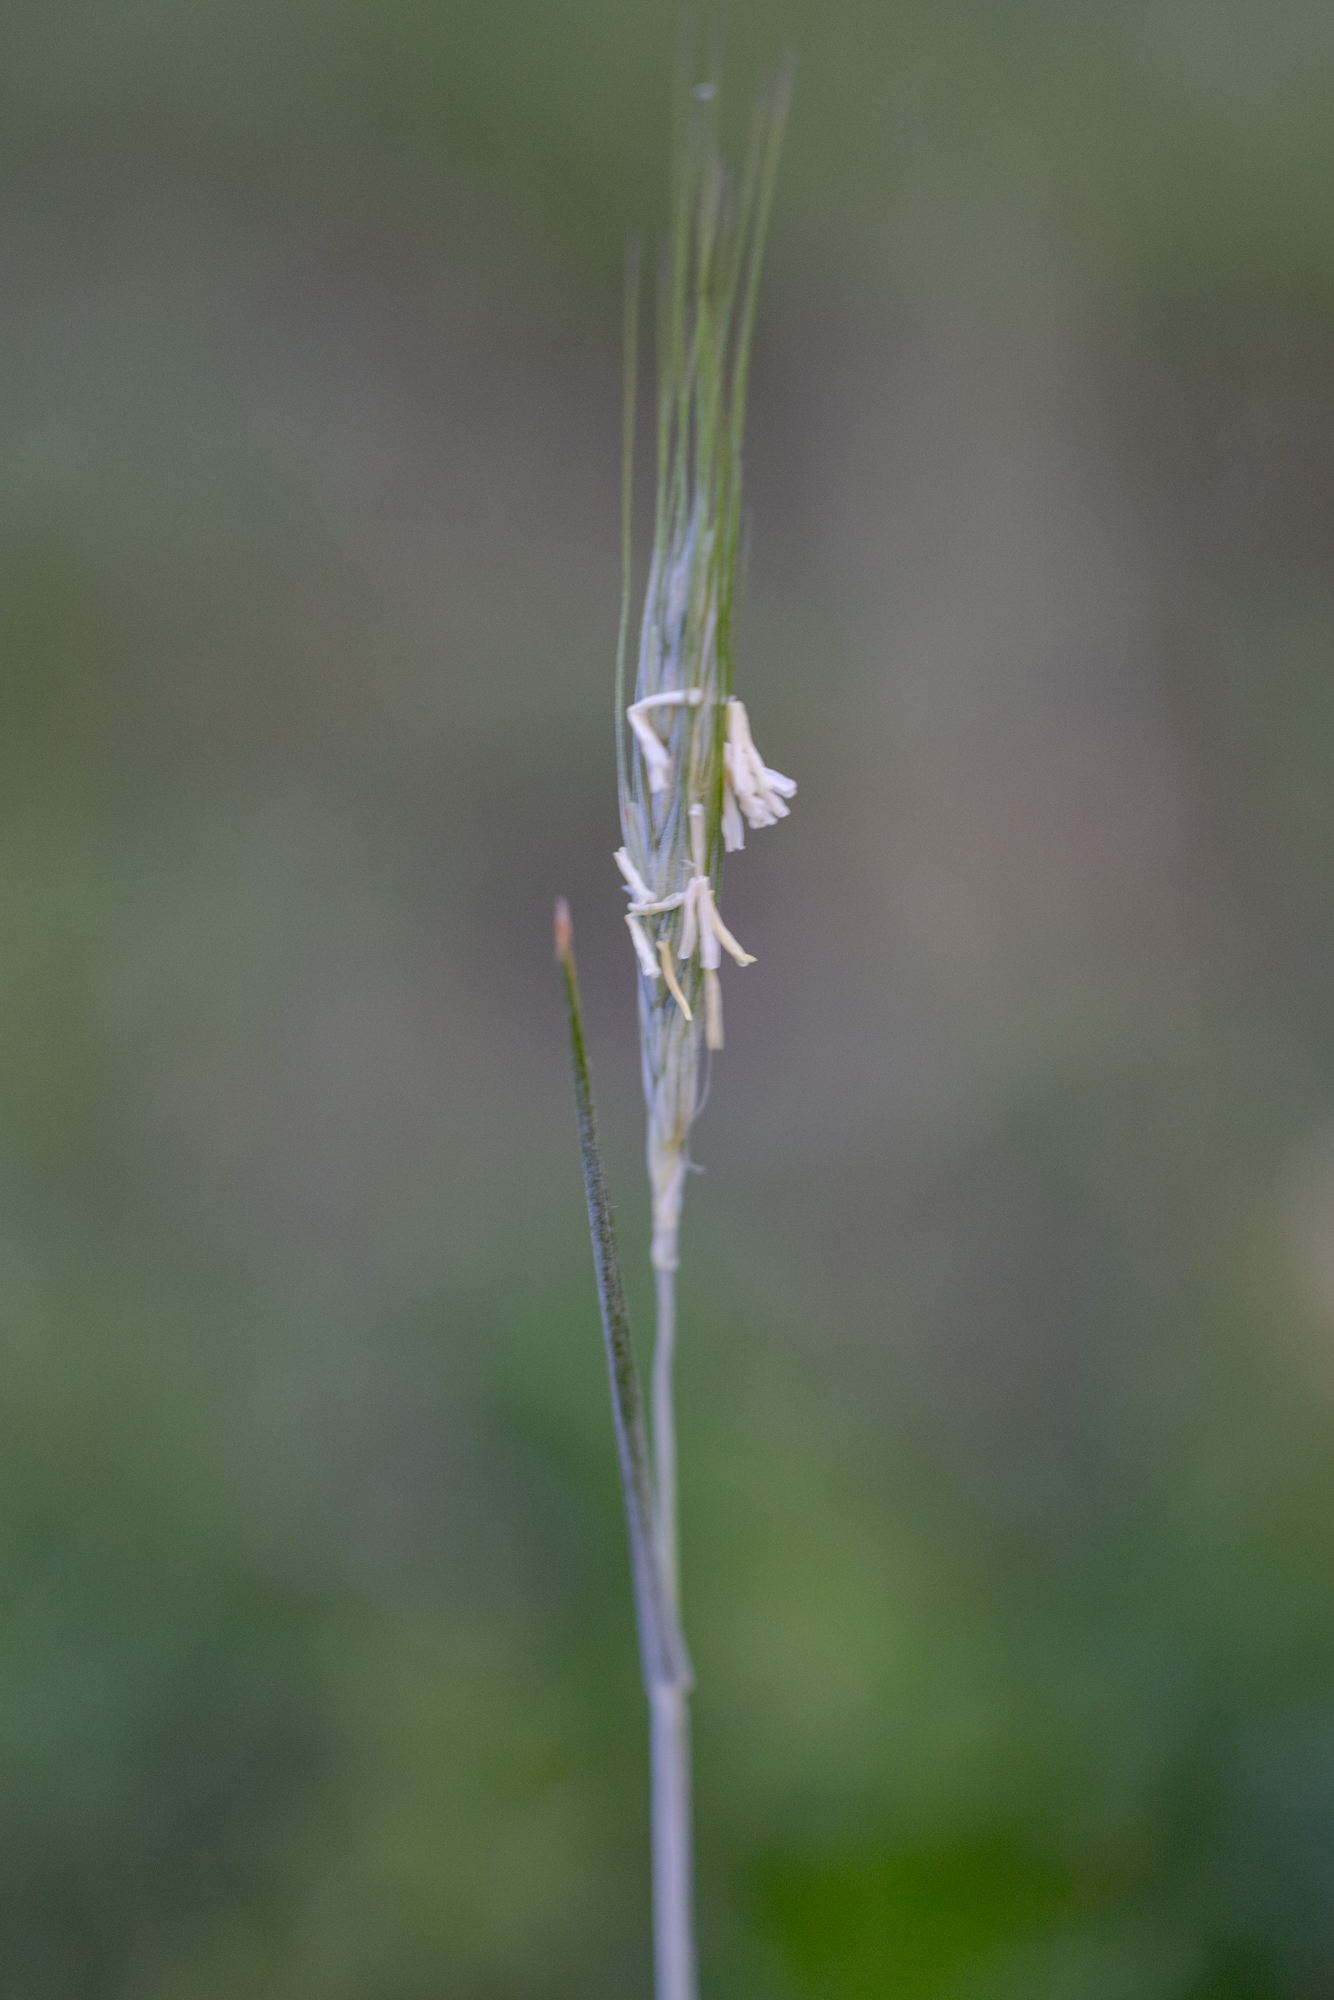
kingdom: Plantae
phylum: Tracheophyta
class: Liliopsida
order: Poales
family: Poaceae
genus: Secale
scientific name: Secale cereale
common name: Rye
